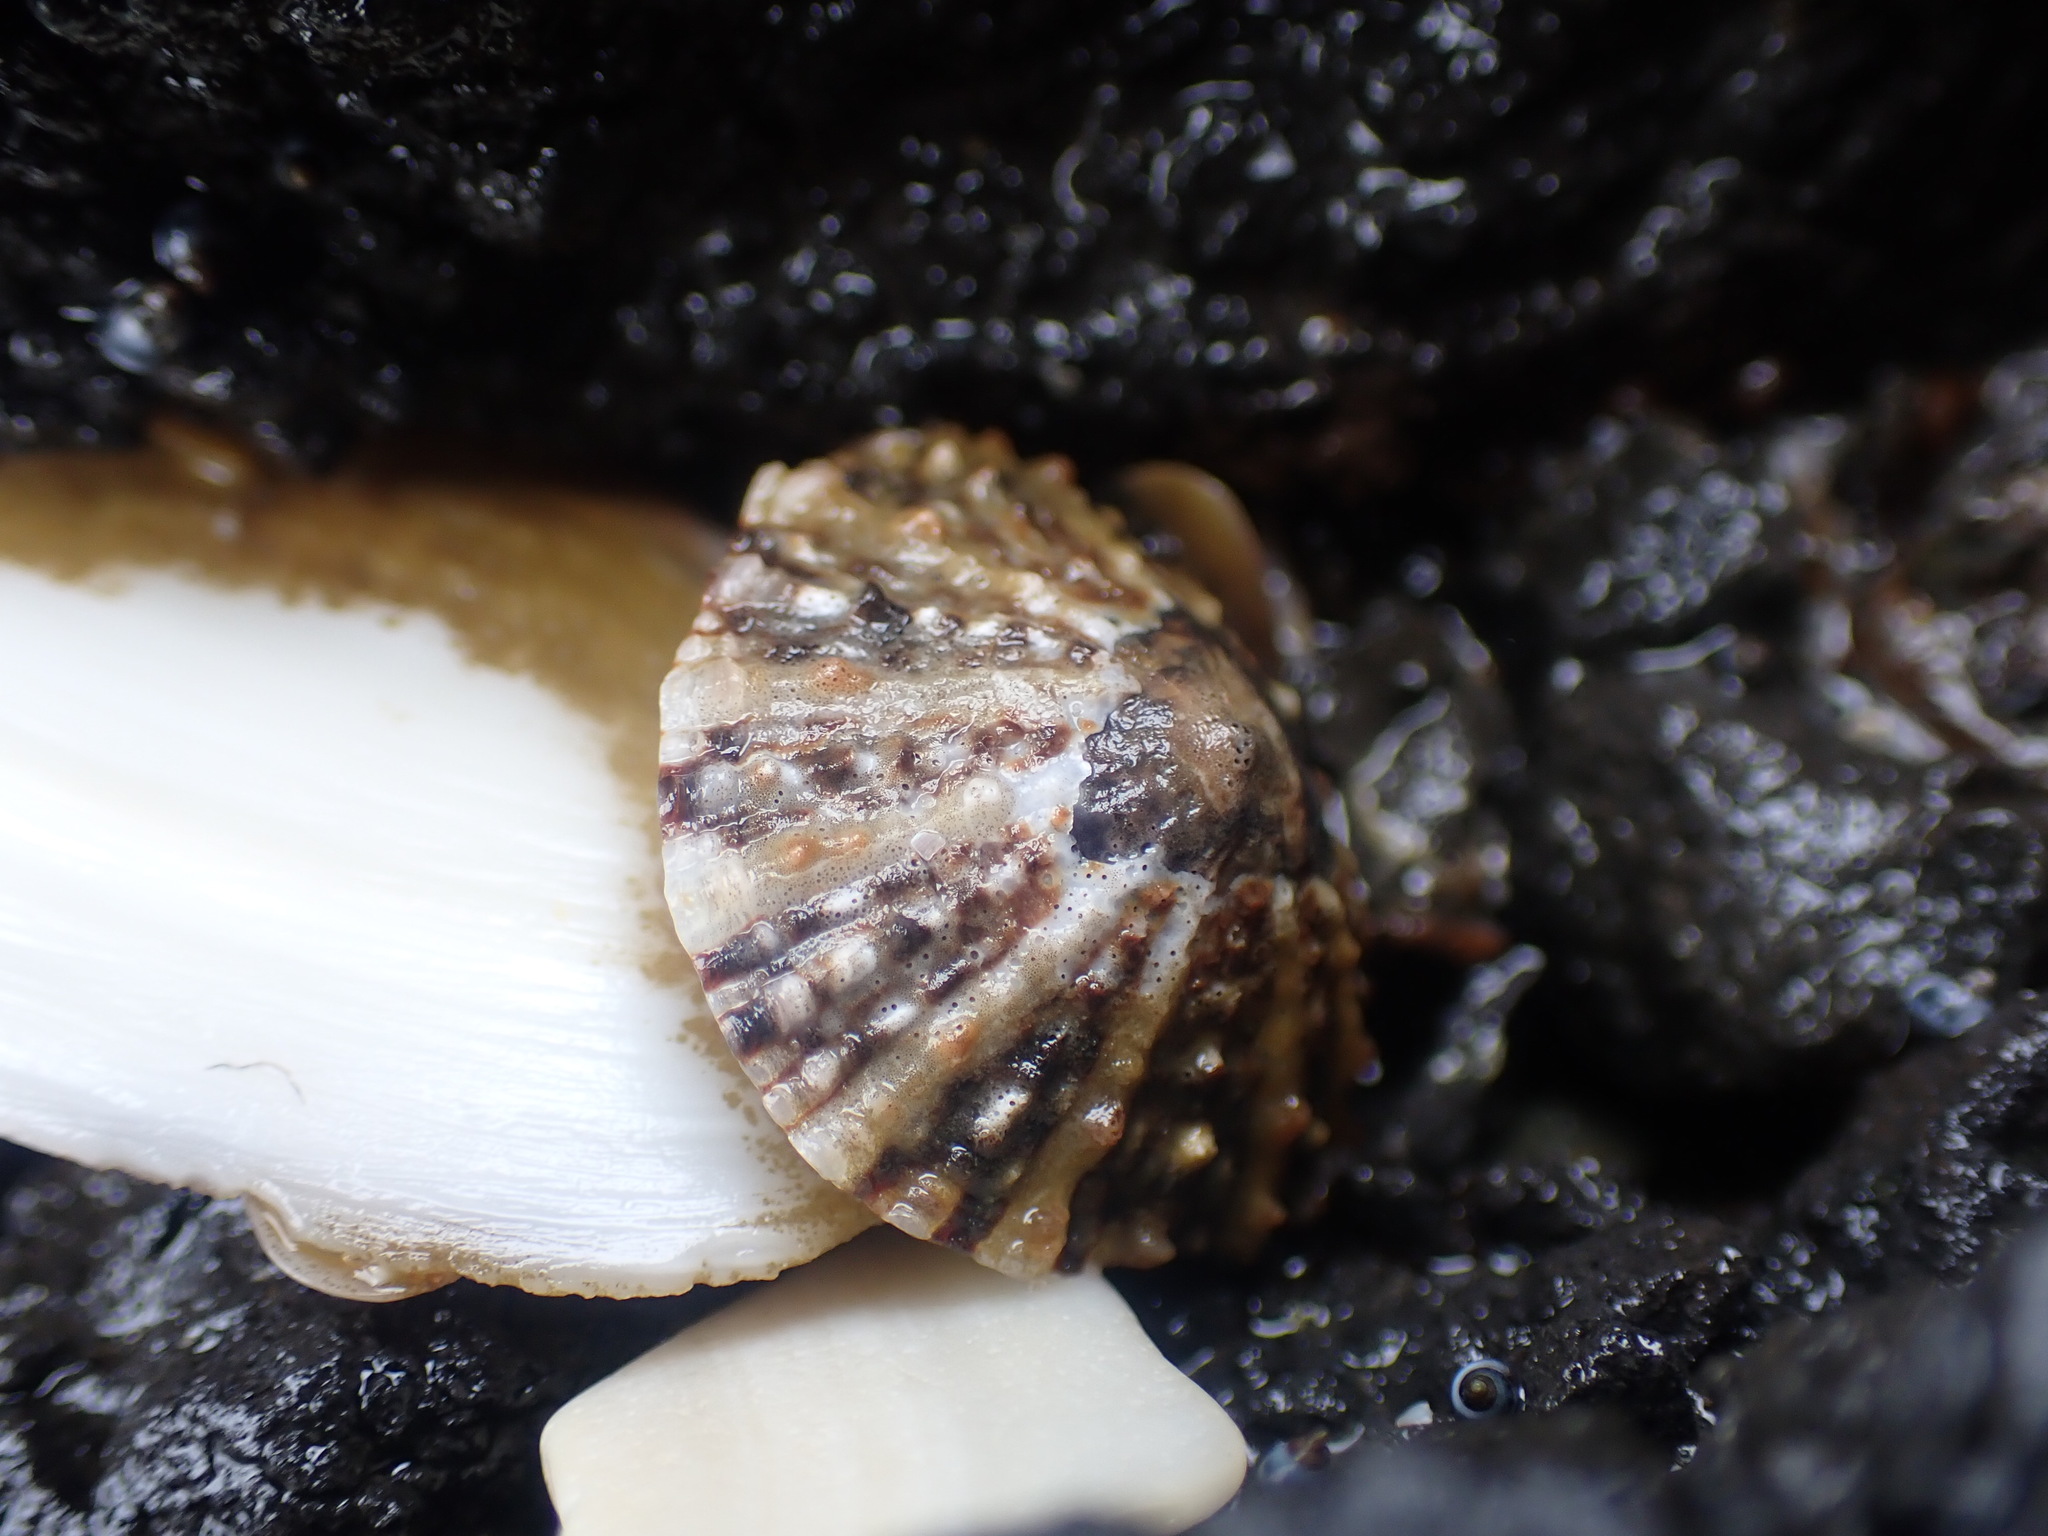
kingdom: Animalia
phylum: Mollusca
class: Gastropoda
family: Nacellidae
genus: Cellana
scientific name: Cellana ornata
